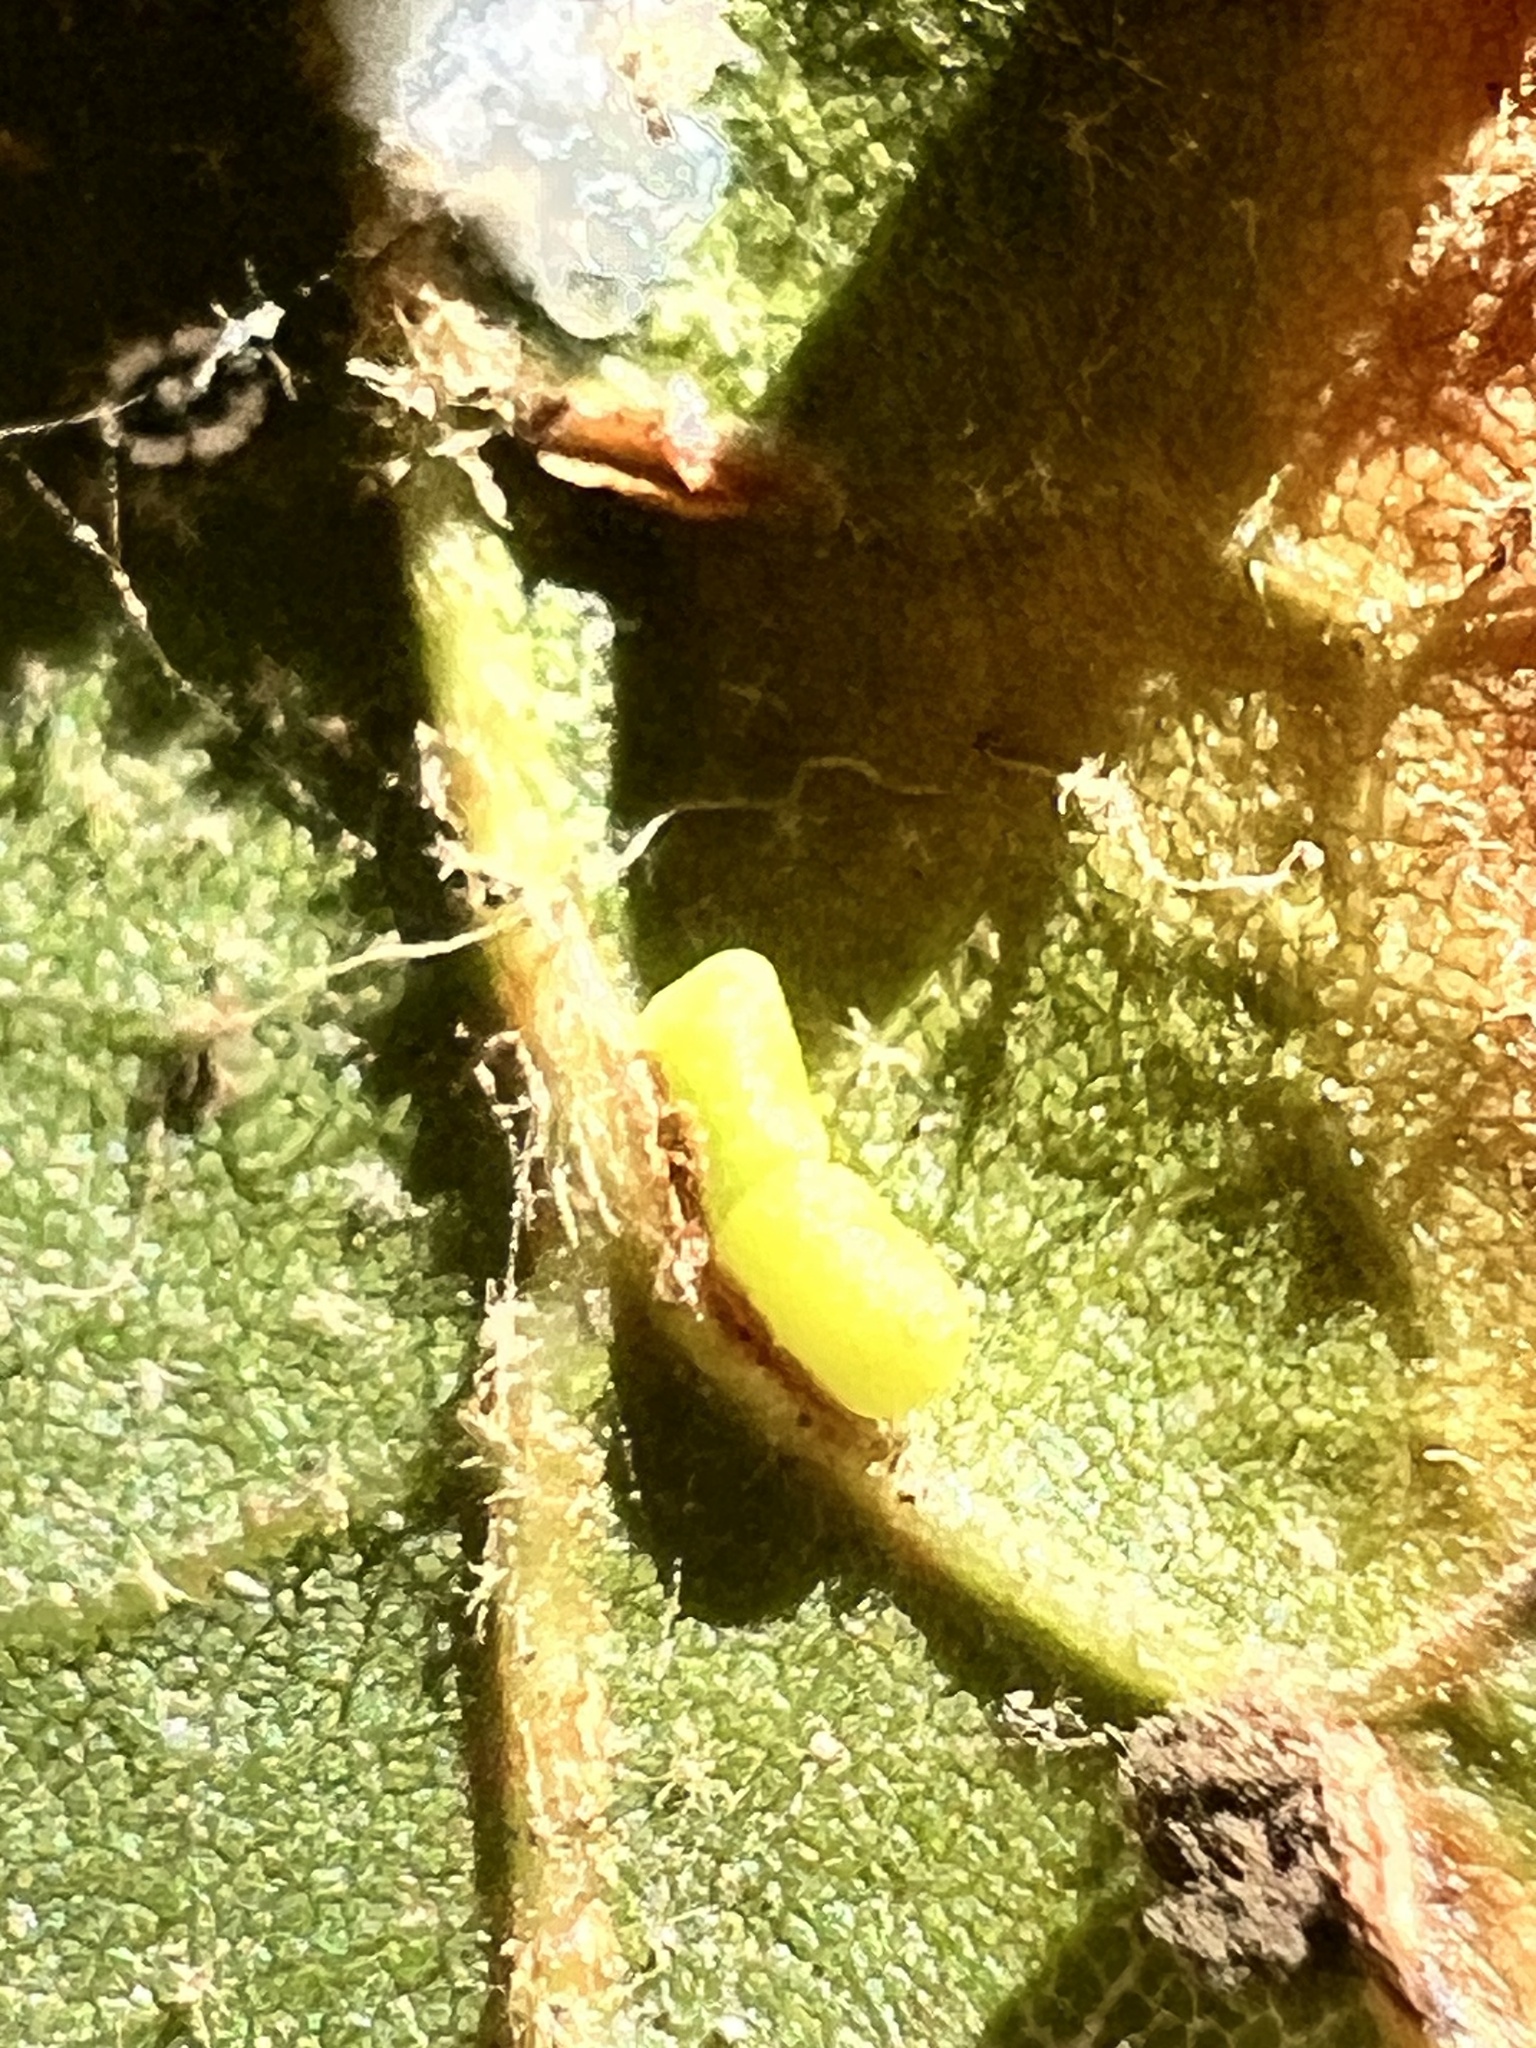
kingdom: Animalia
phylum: Arthropoda
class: Insecta
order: Hymenoptera
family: Cynipidae
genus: Dryocosmus
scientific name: Dryocosmus
